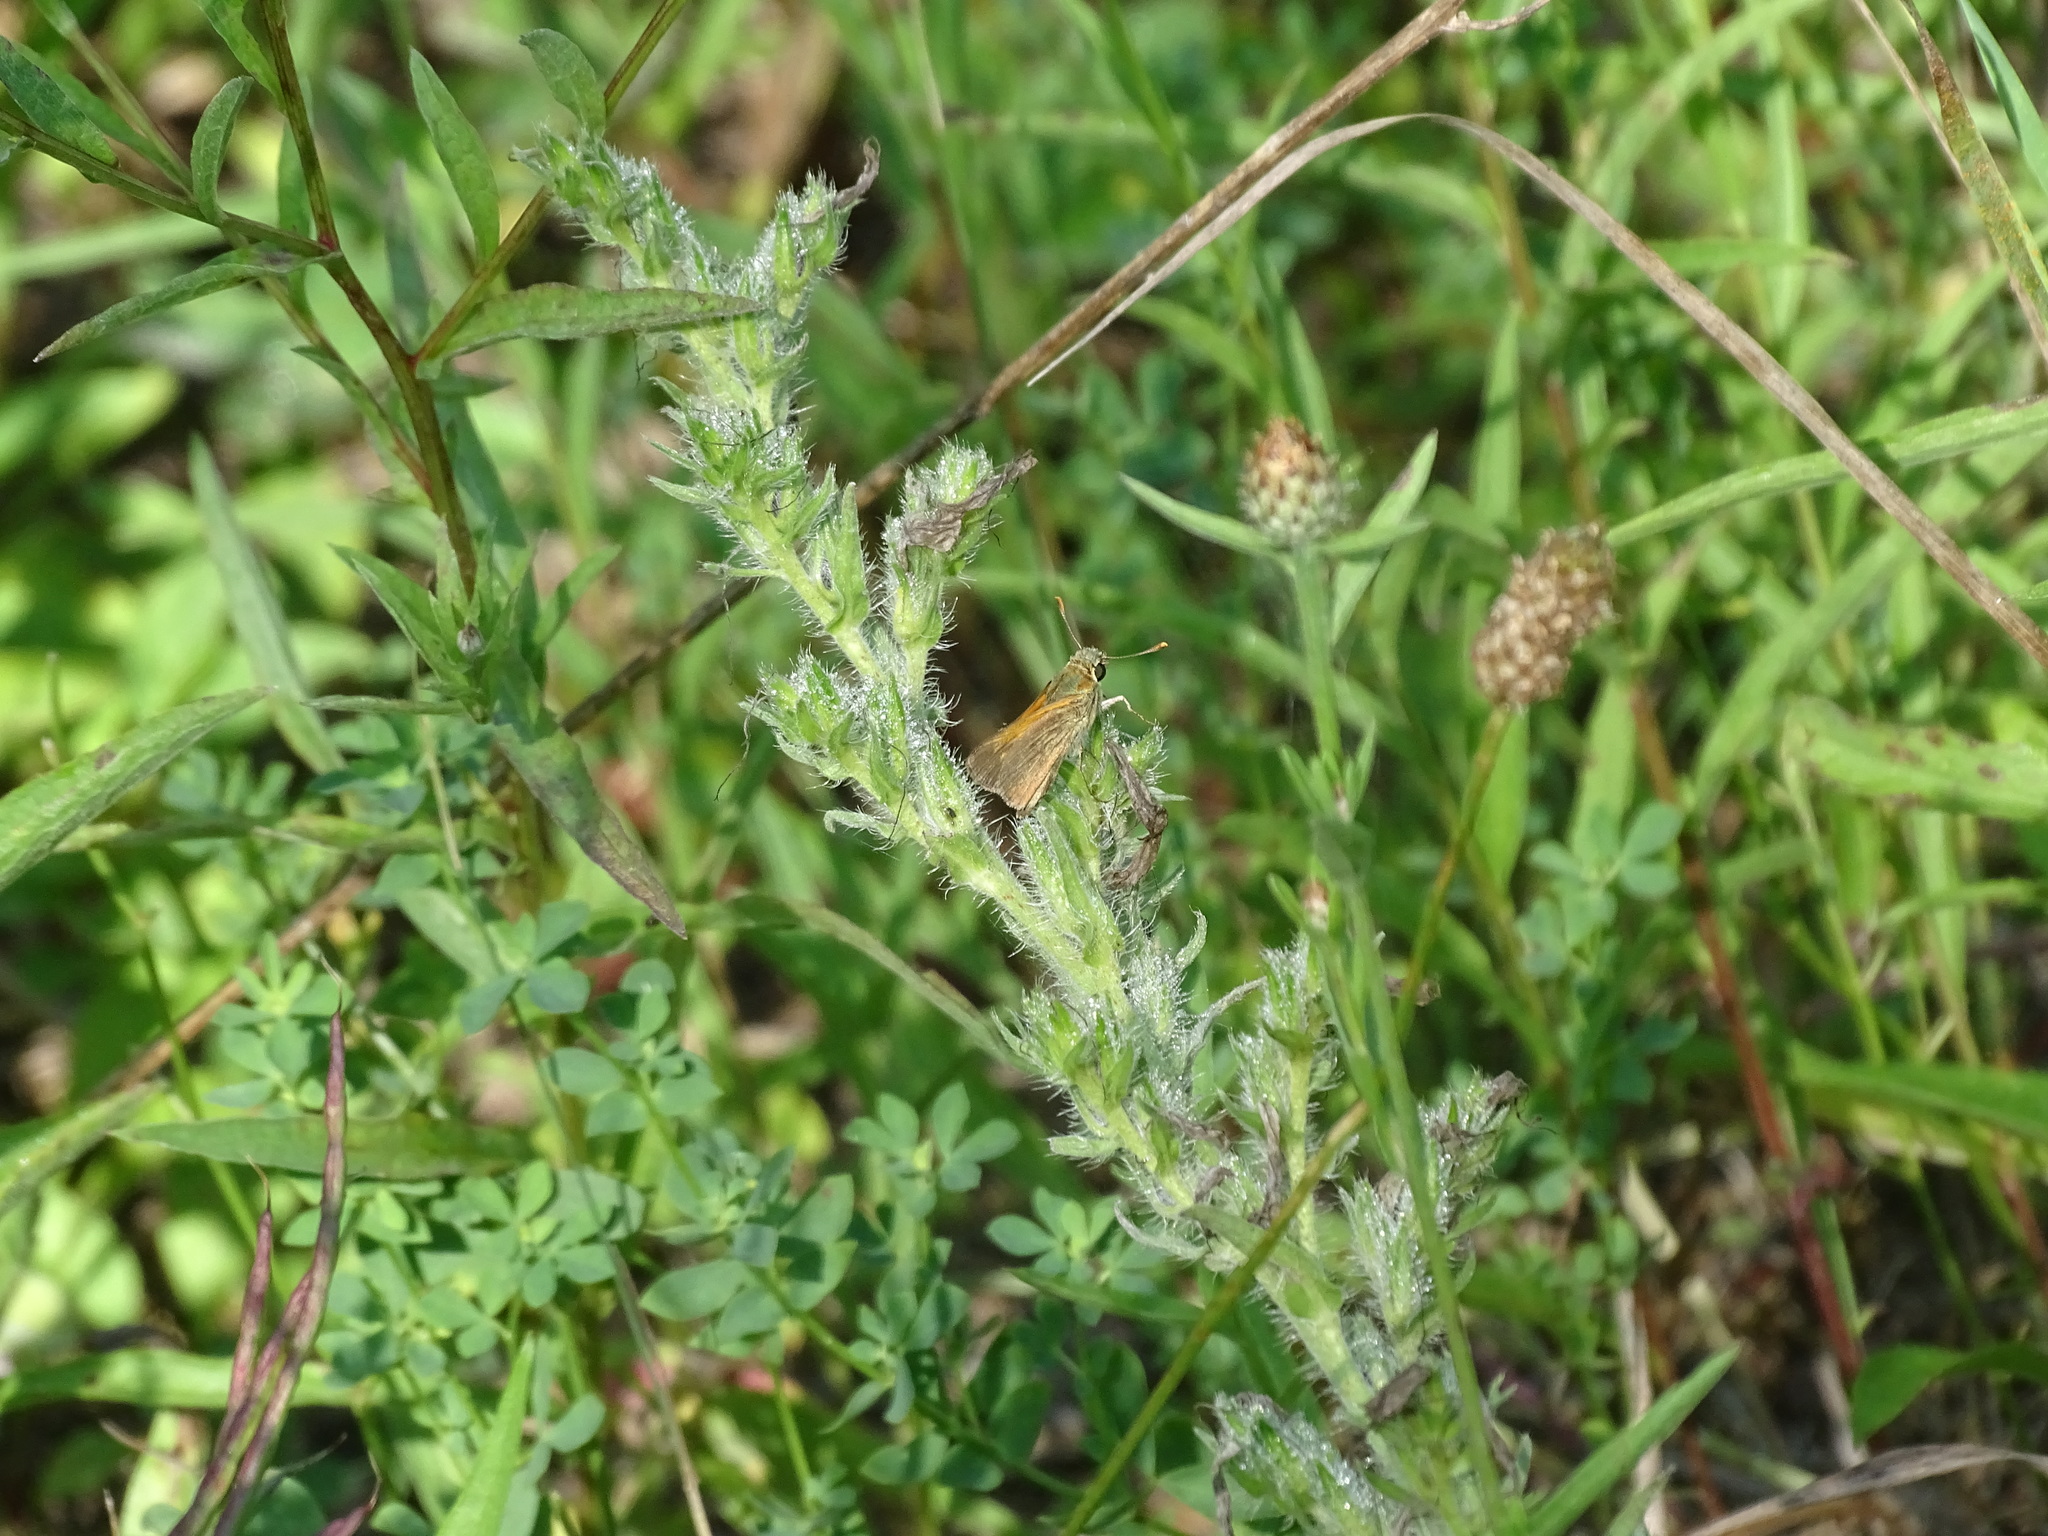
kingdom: Animalia
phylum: Arthropoda
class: Insecta
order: Lepidoptera
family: Hesperiidae
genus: Polites
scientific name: Polites themistocles
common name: Tawny-edged skipper
